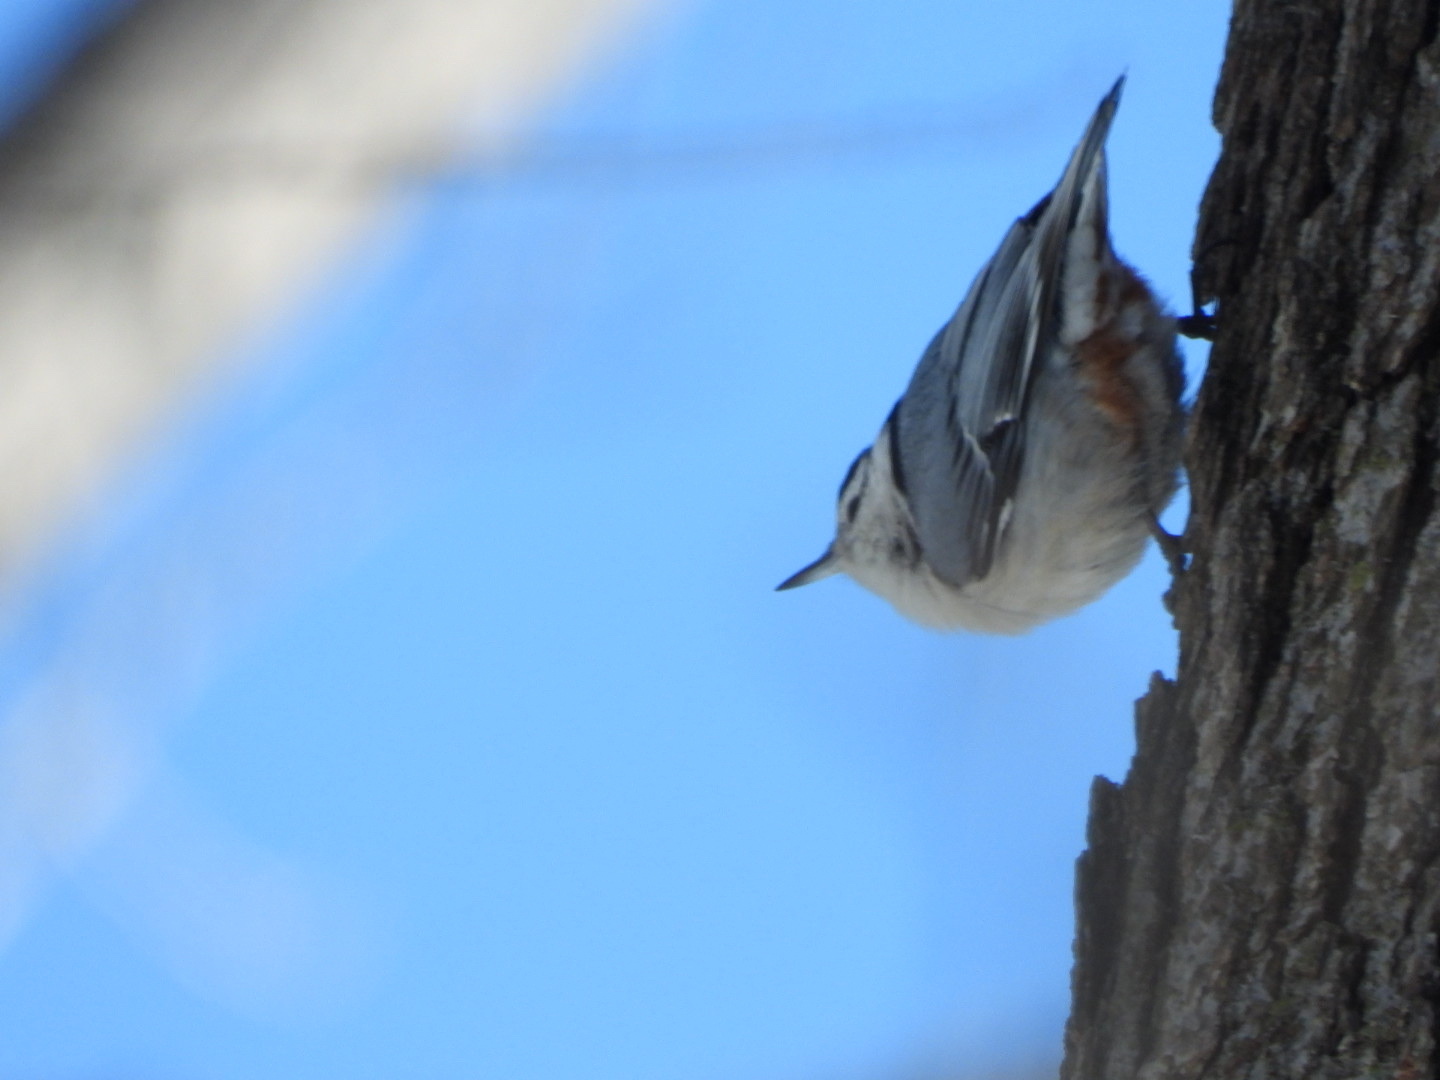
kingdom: Animalia
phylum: Chordata
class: Aves
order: Passeriformes
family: Sittidae
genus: Sitta
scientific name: Sitta carolinensis
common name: White-breasted nuthatch
